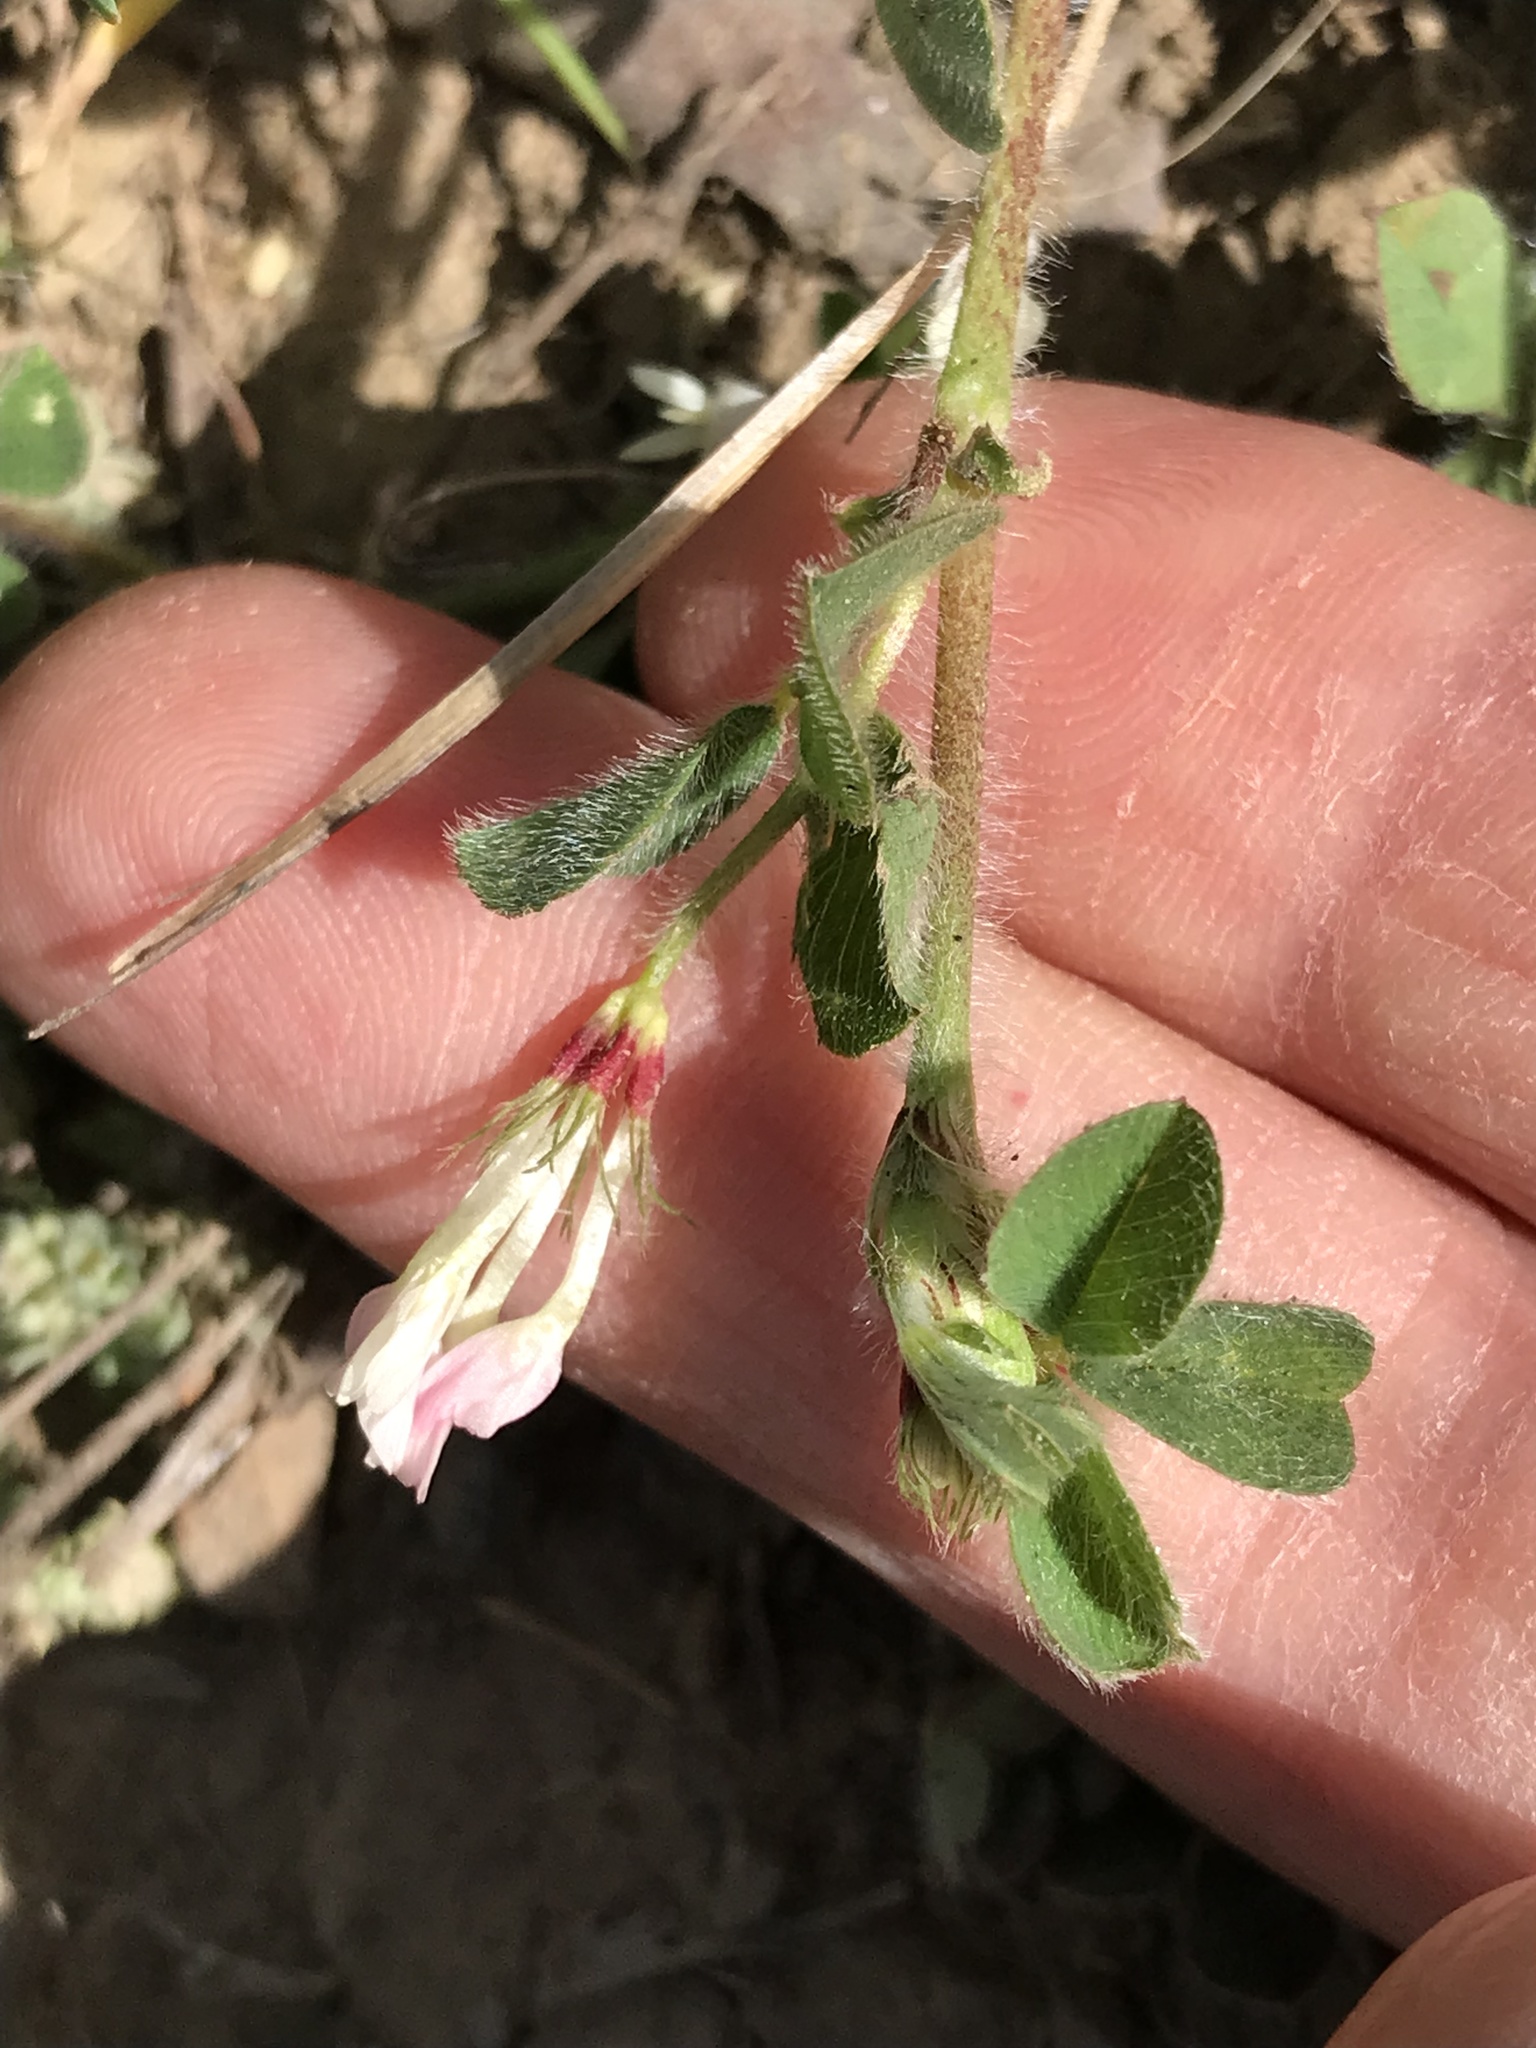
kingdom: Plantae
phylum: Tracheophyta
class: Magnoliopsida
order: Fabales
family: Fabaceae
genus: Trifolium
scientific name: Trifolium subterraneum
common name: Subterranean clover
